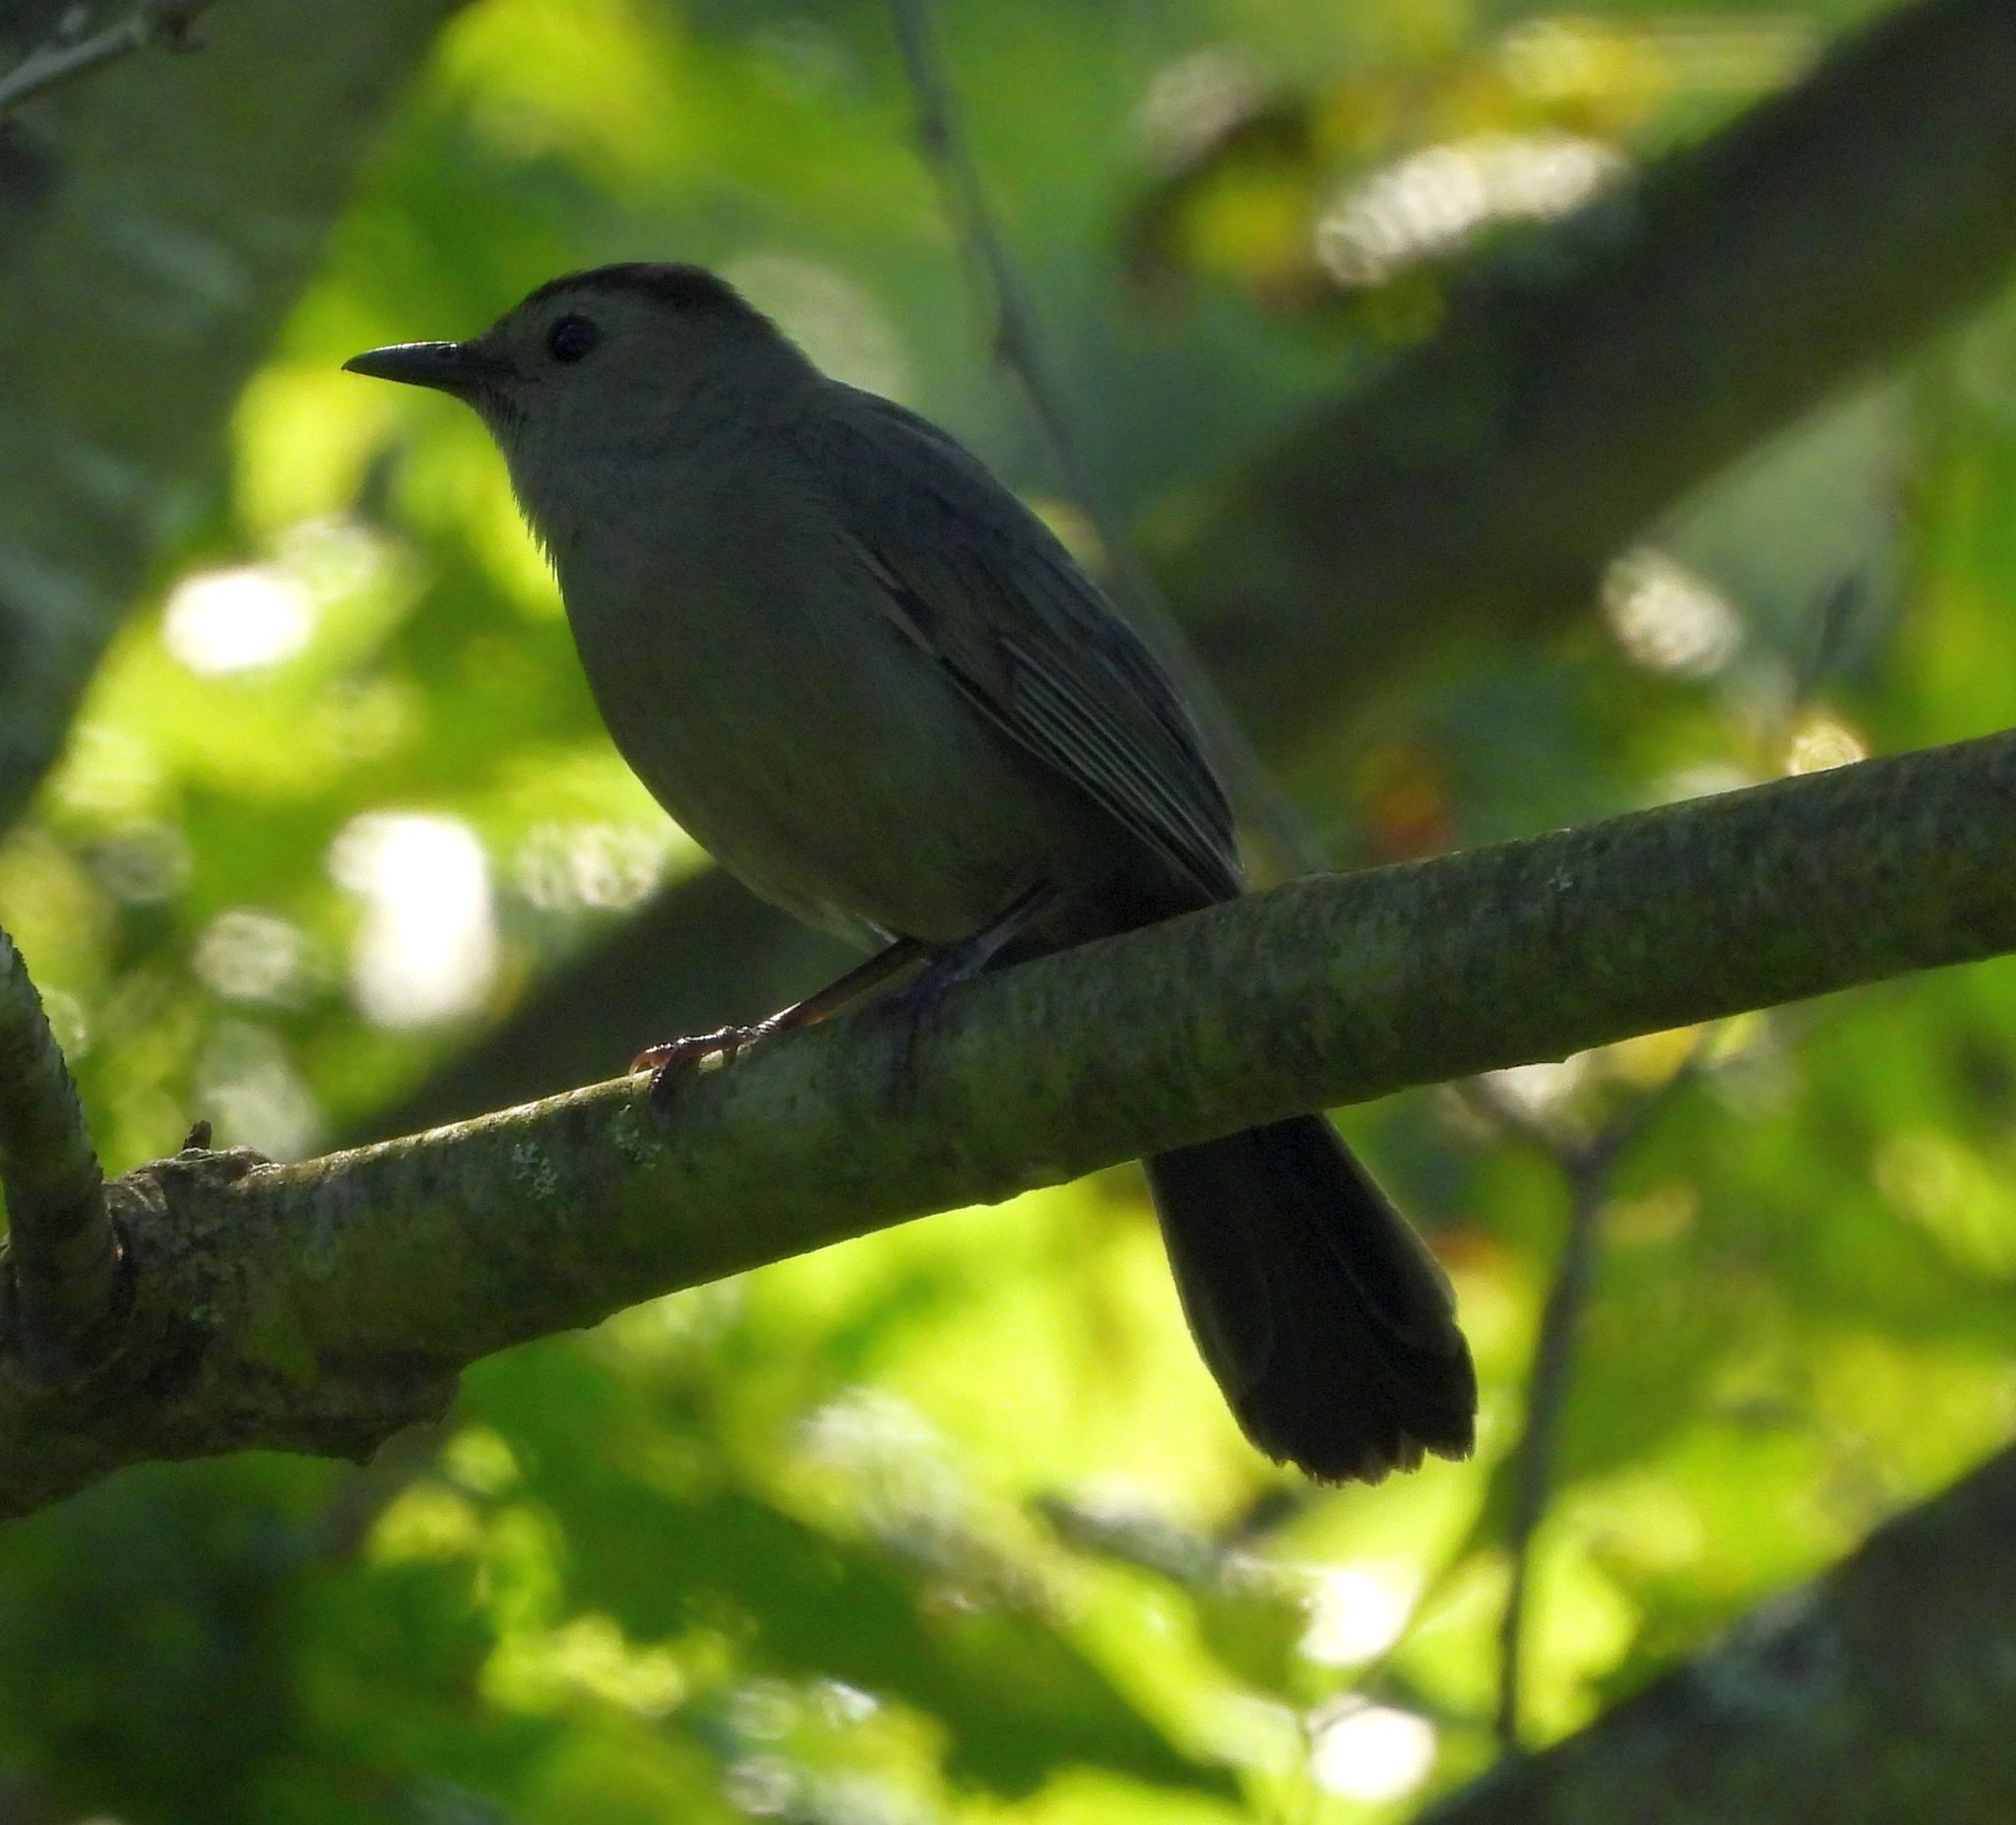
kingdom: Animalia
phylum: Chordata
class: Aves
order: Passeriformes
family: Mimidae
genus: Dumetella
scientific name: Dumetella carolinensis
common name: Gray catbird
